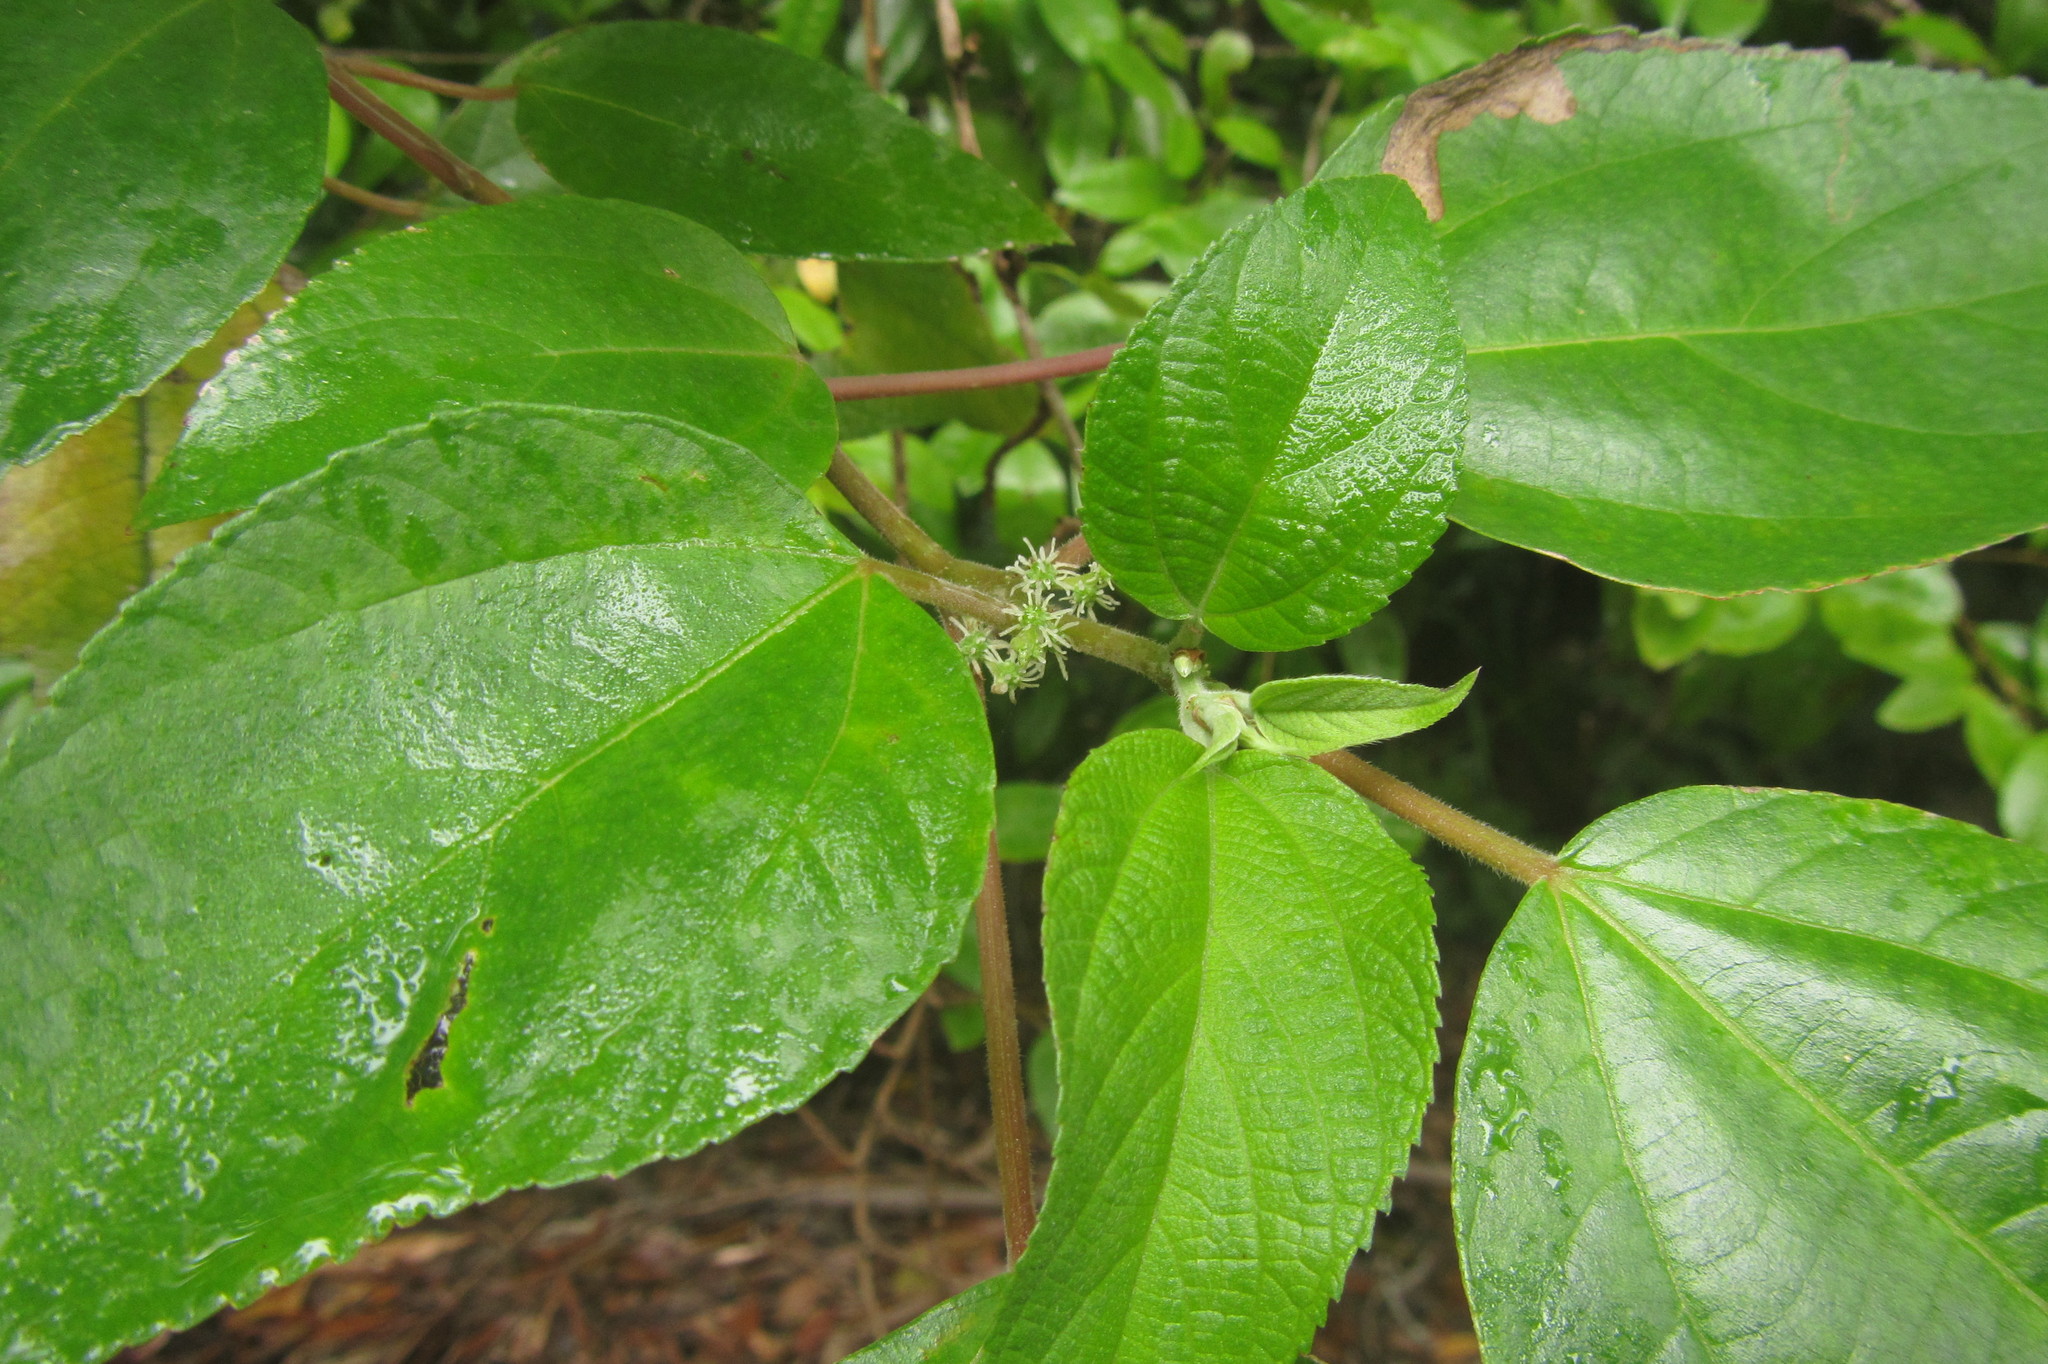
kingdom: Plantae
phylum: Tracheophyta
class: Magnoliopsida
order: Rosales
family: Urticaceae
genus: Pipturus
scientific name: Pipturus argenteus
